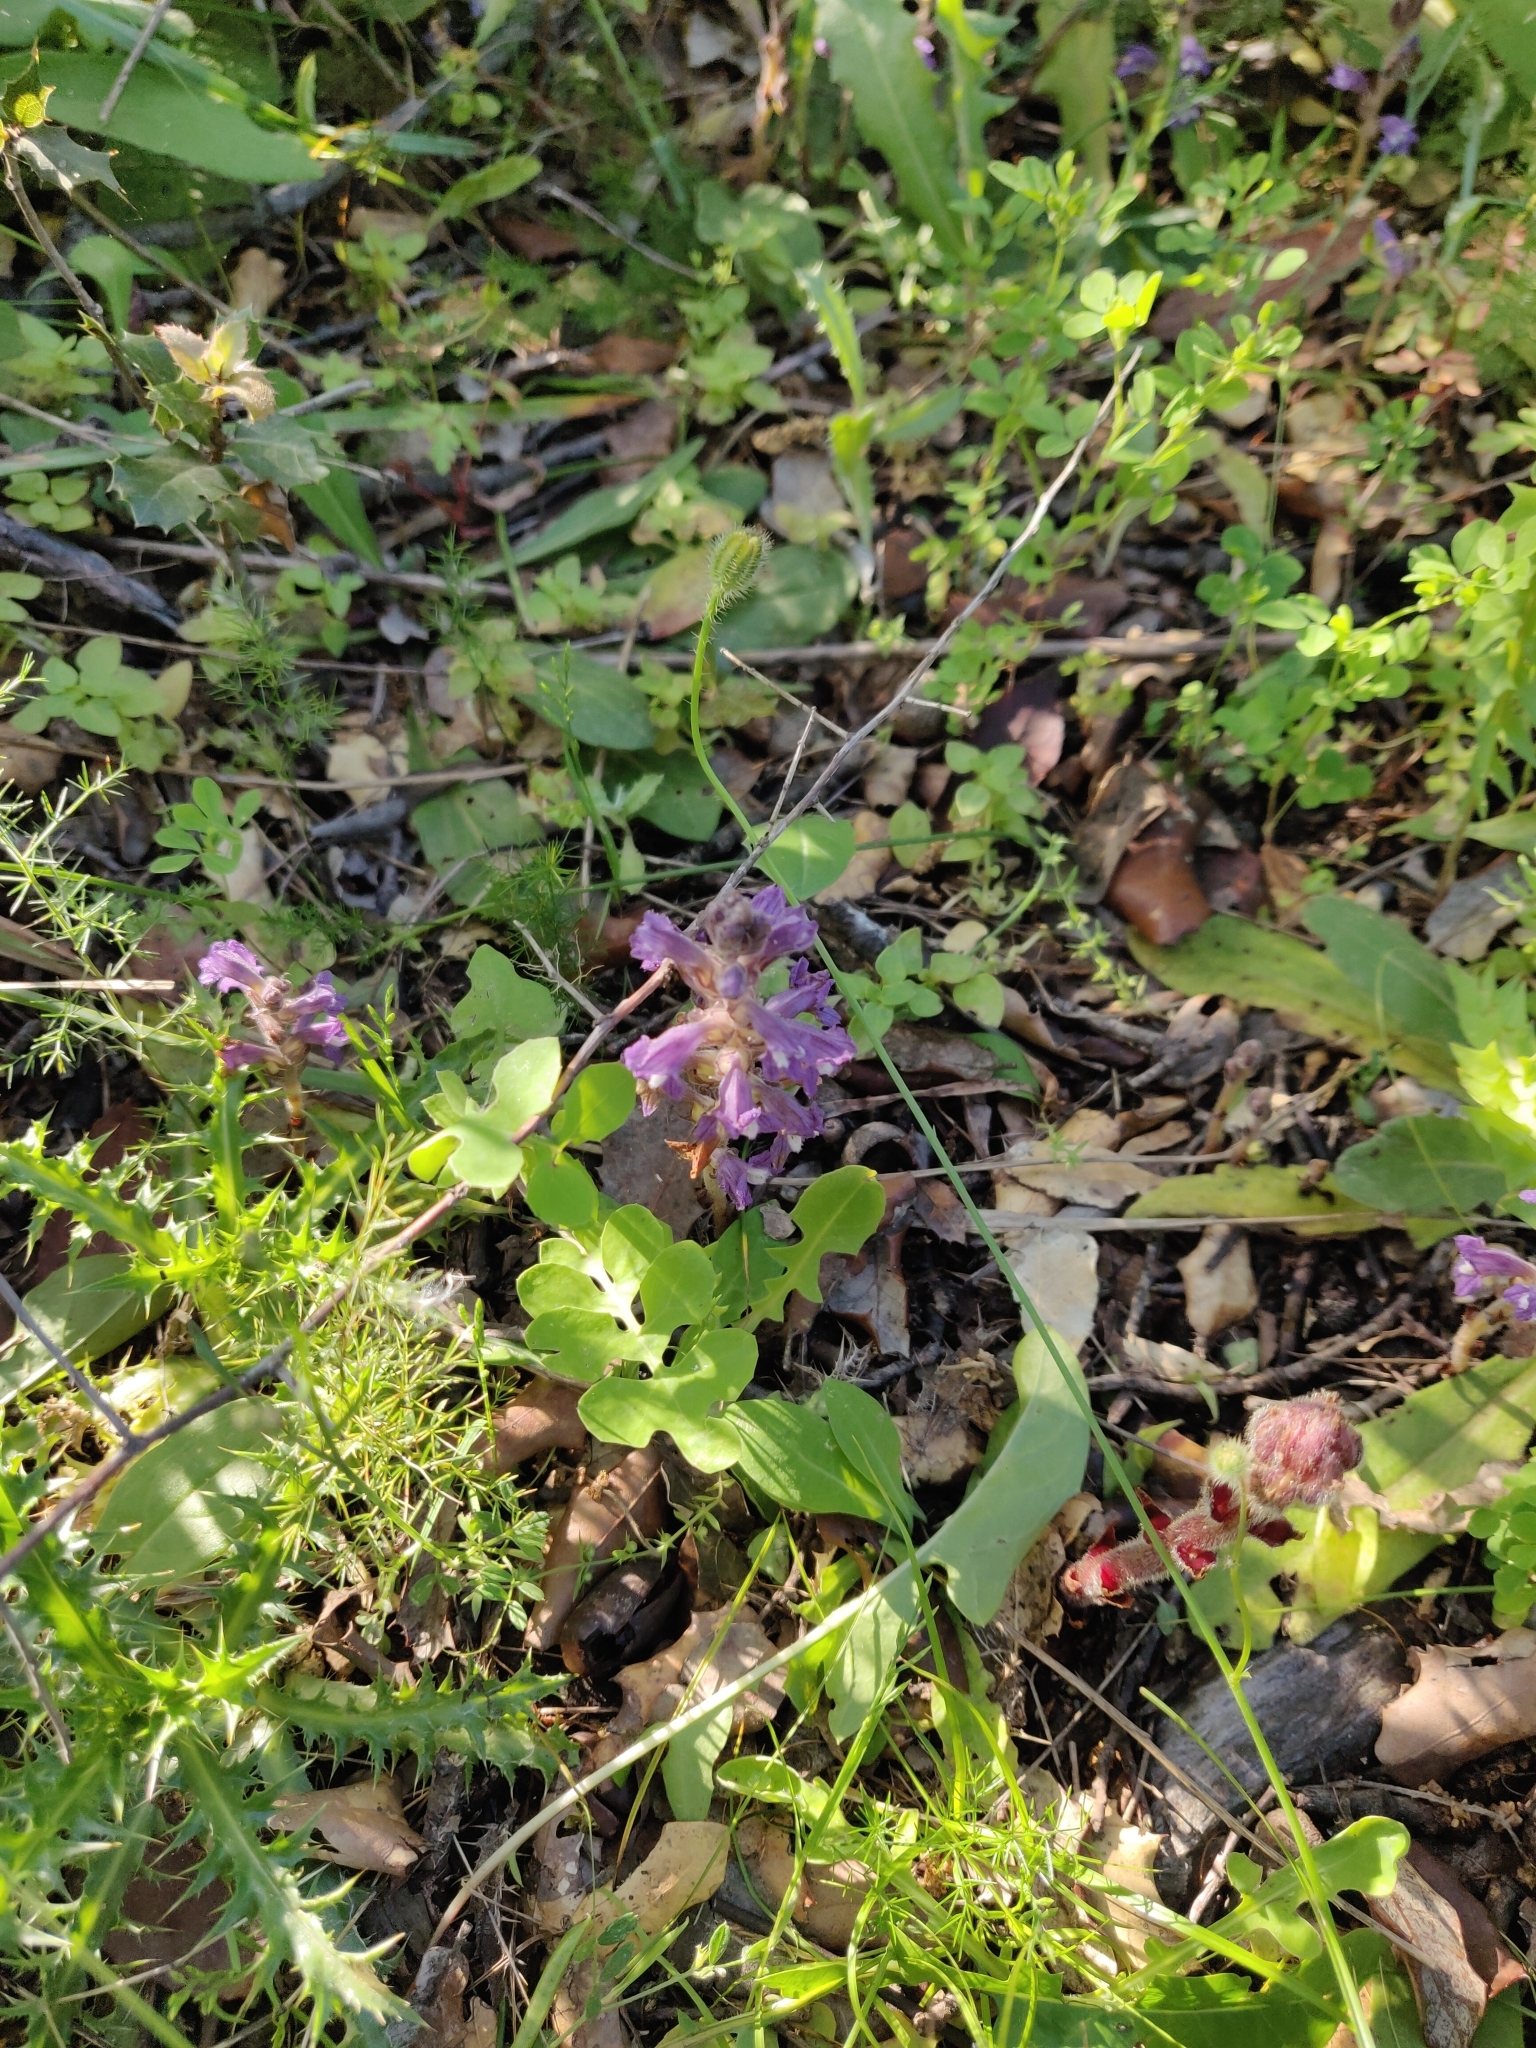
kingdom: Plantae
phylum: Tracheophyta
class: Magnoliopsida
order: Lamiales
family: Orobanchaceae
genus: Phelipanche
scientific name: Phelipanche mutelii
